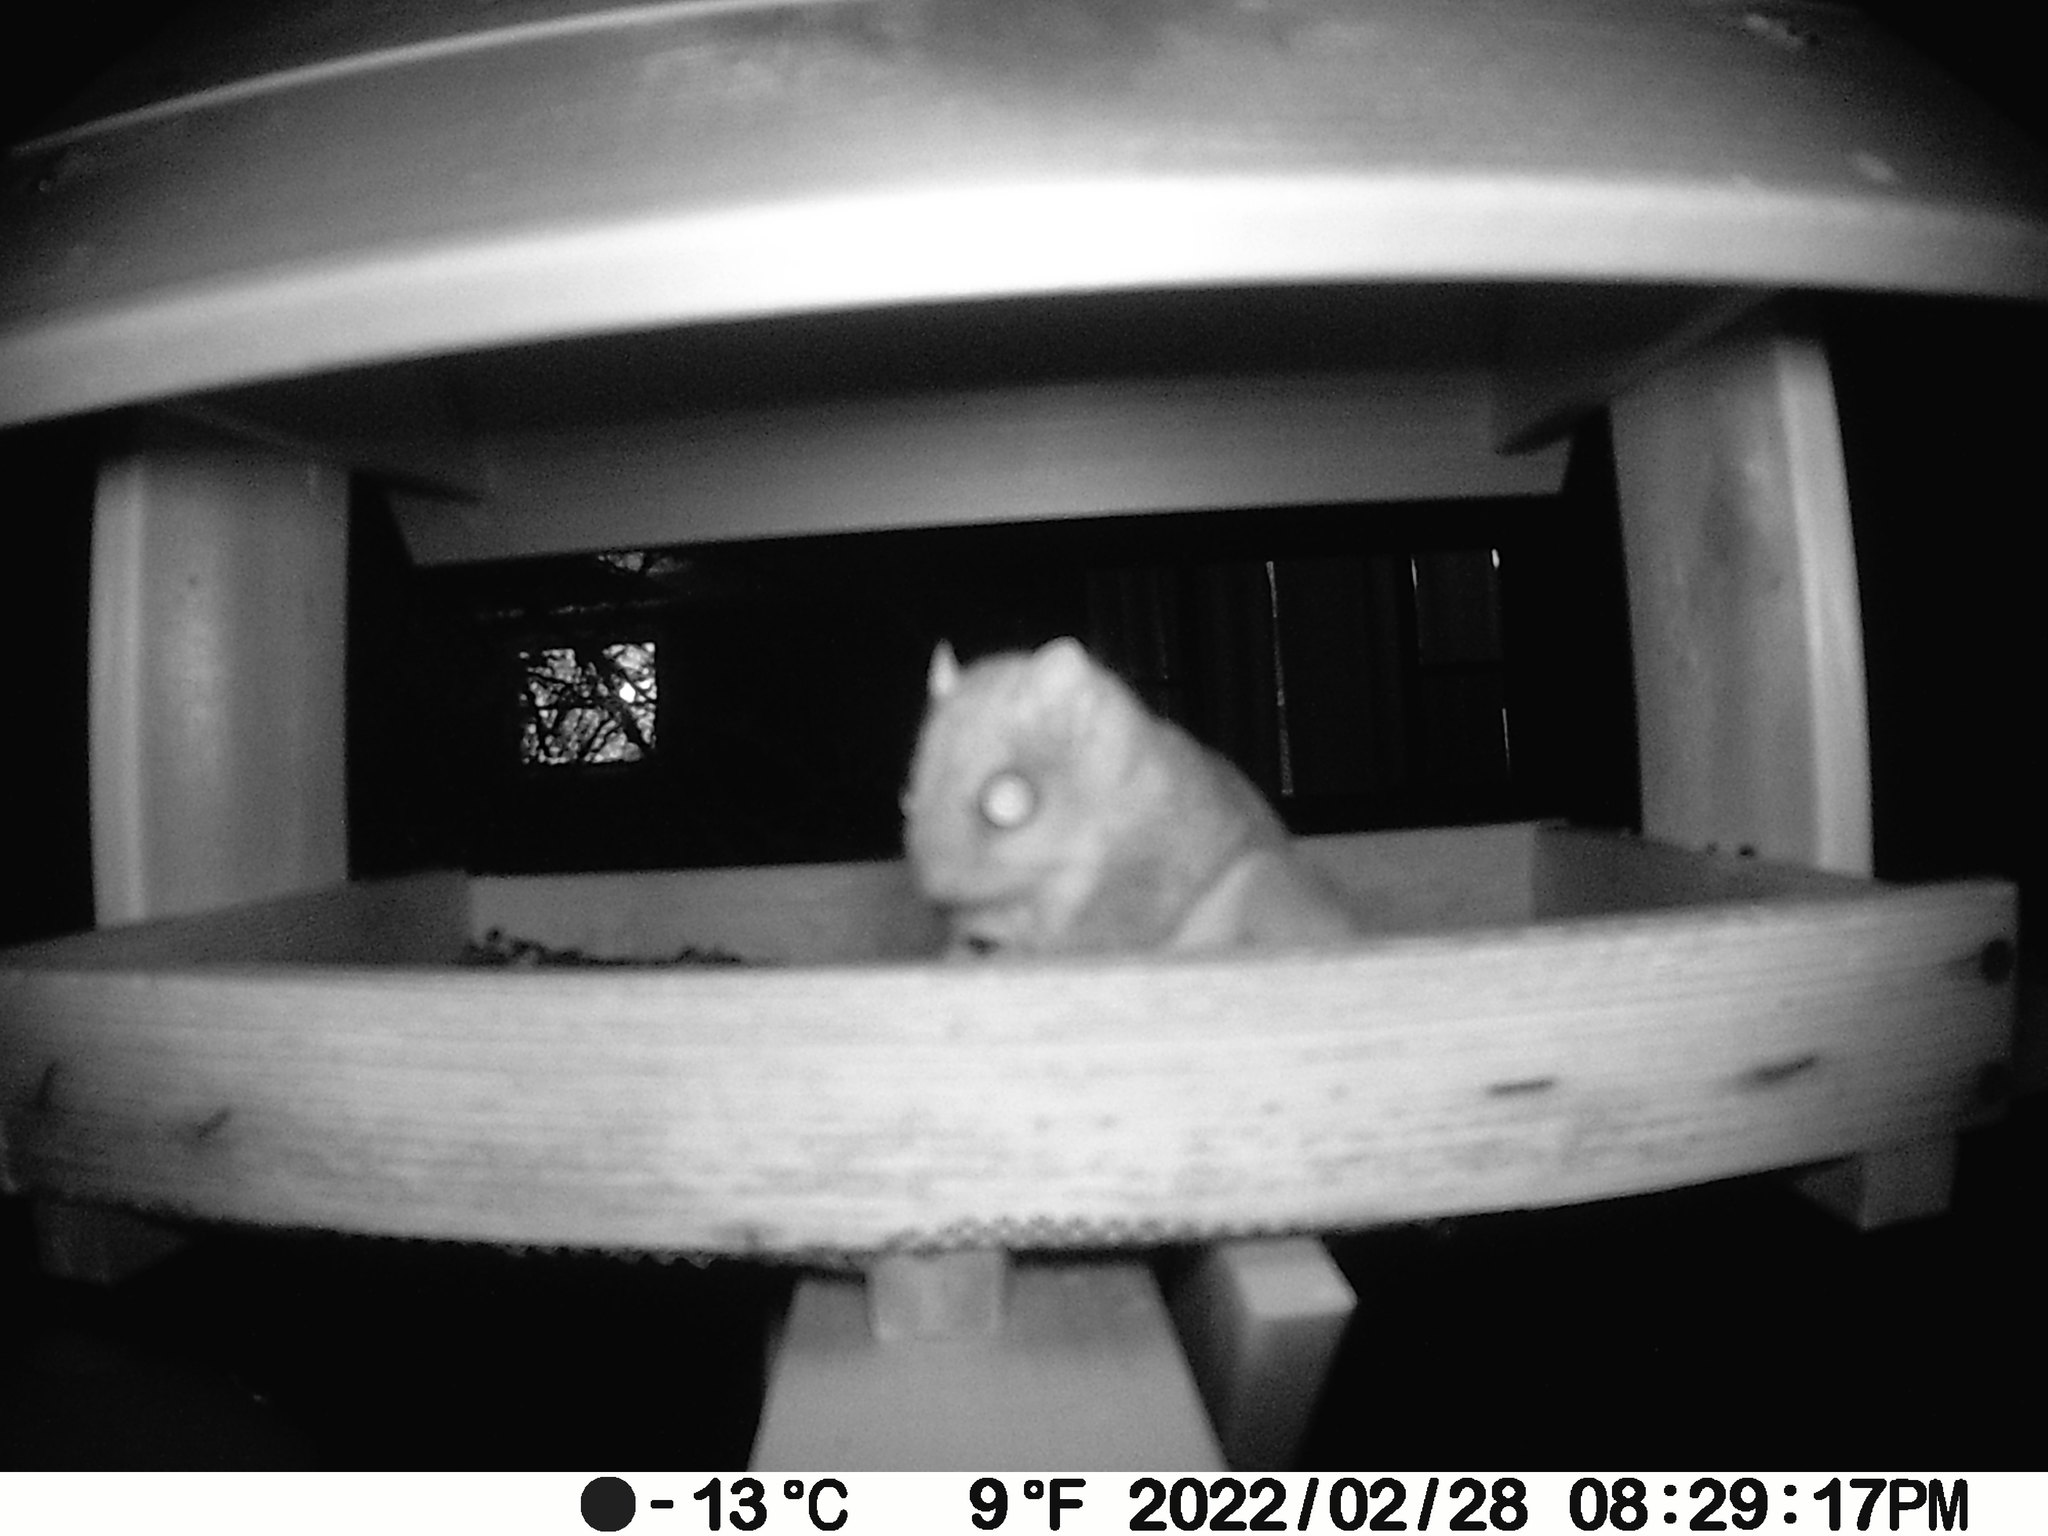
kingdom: Animalia
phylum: Chordata
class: Mammalia
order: Rodentia
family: Sciuridae
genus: Glaucomys
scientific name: Glaucomys sabrinus
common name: Northern flying squirrel
